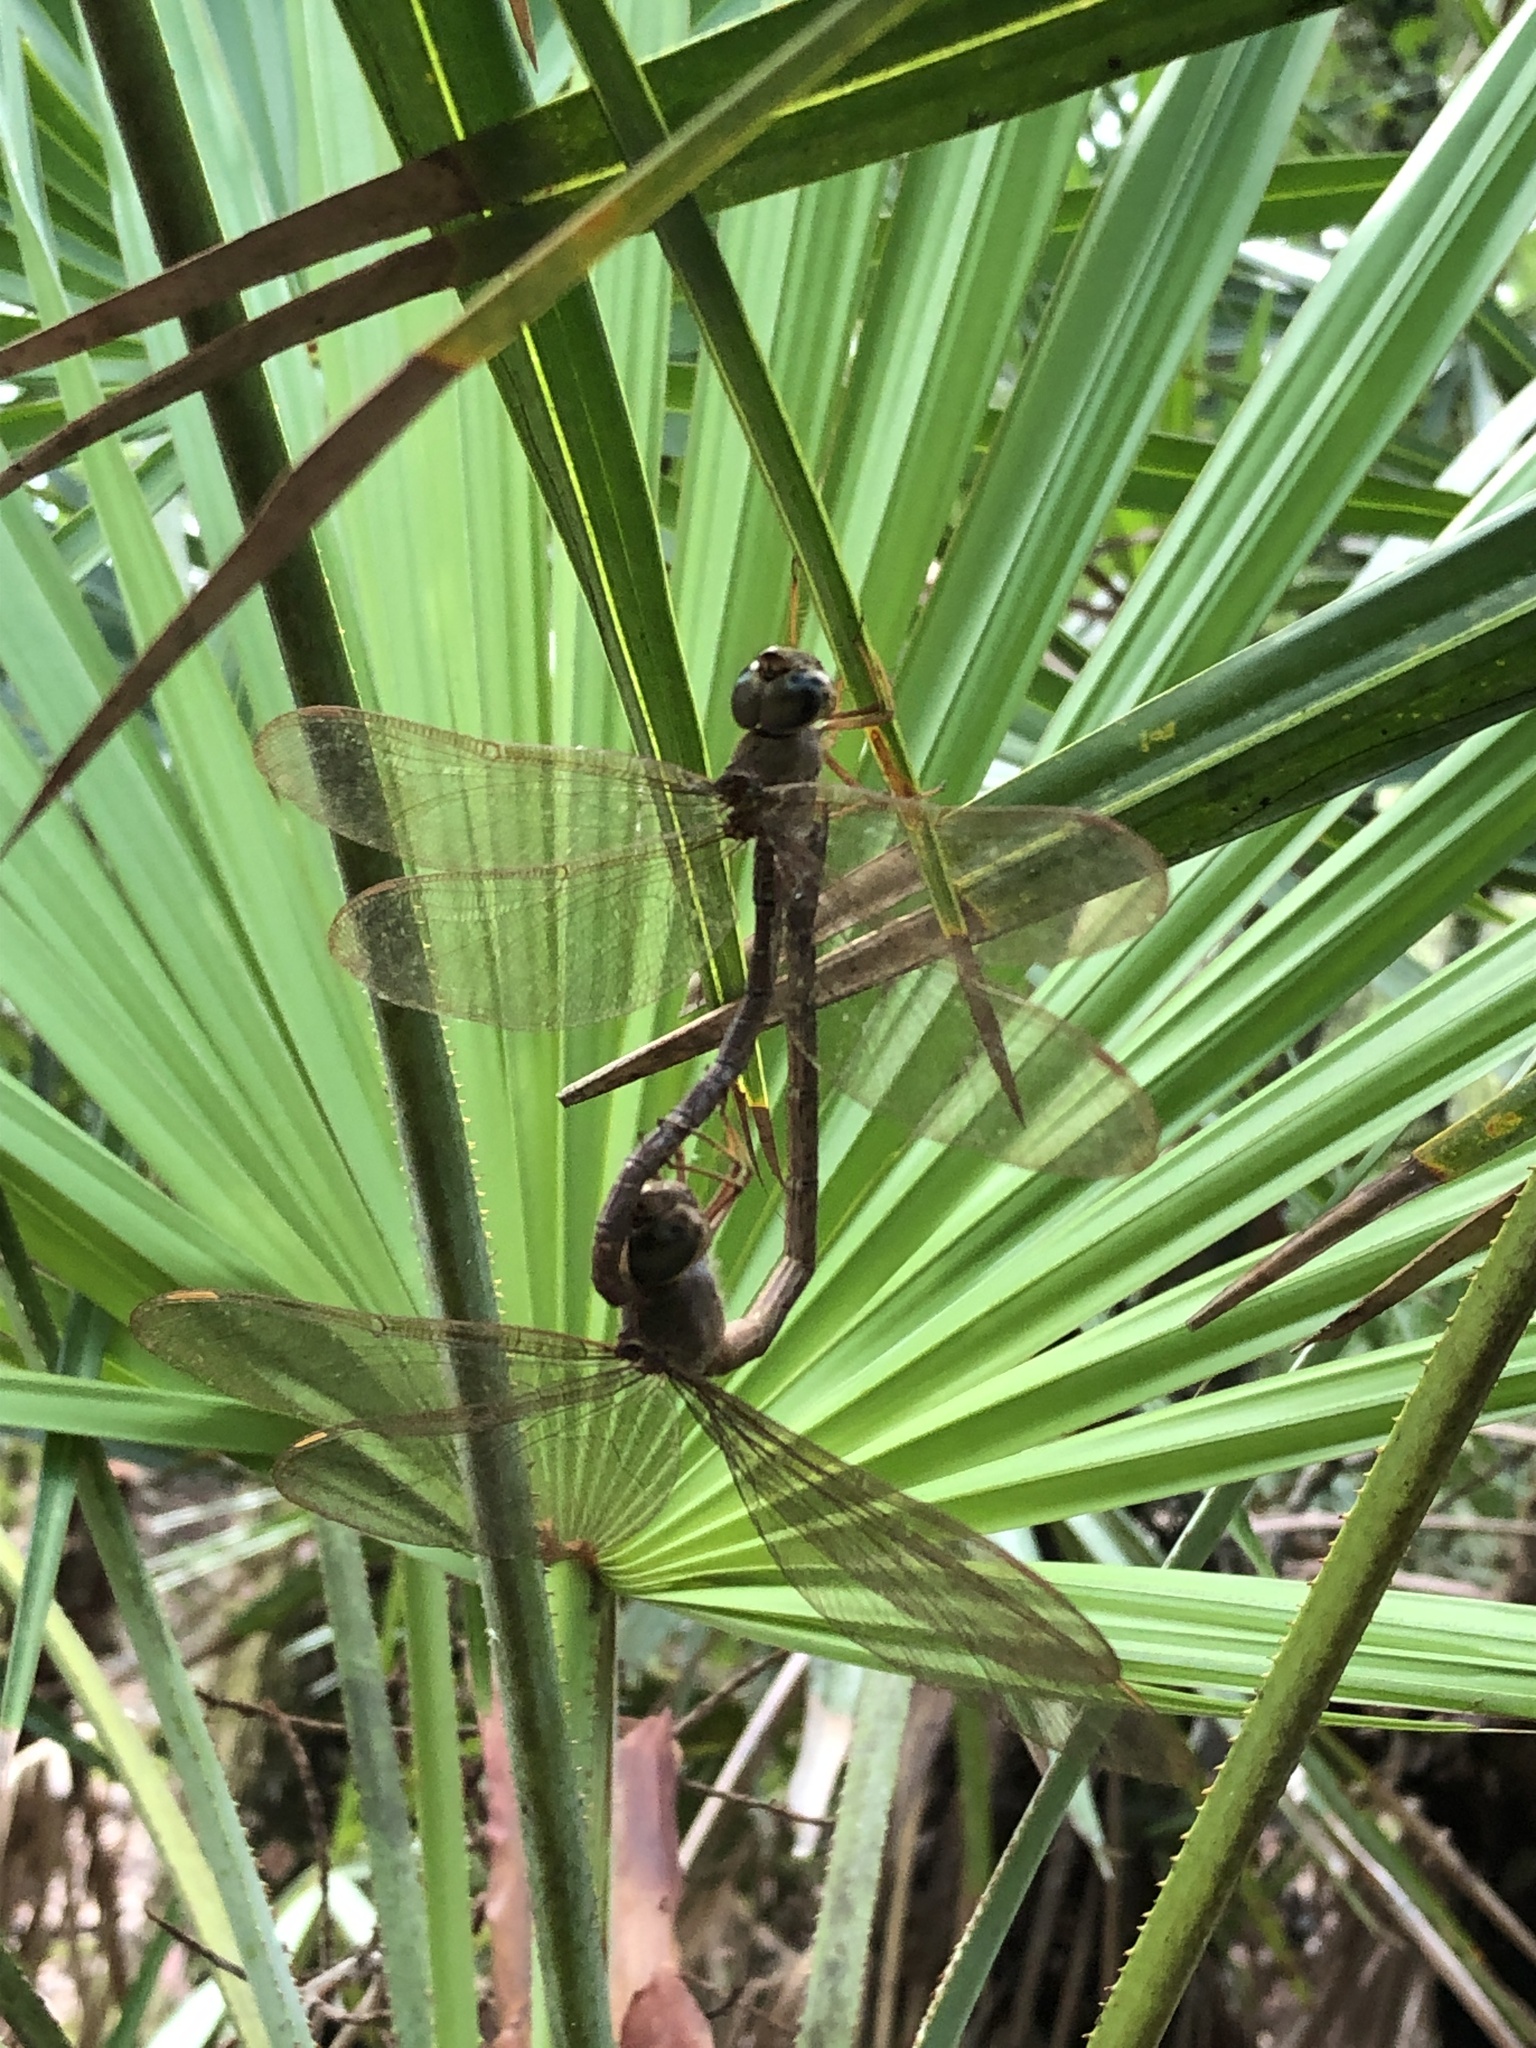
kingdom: Animalia
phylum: Arthropoda
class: Insecta
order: Odonata
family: Aeshnidae
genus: Gynacantha
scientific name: Gynacantha nervosa
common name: Twilight darner
